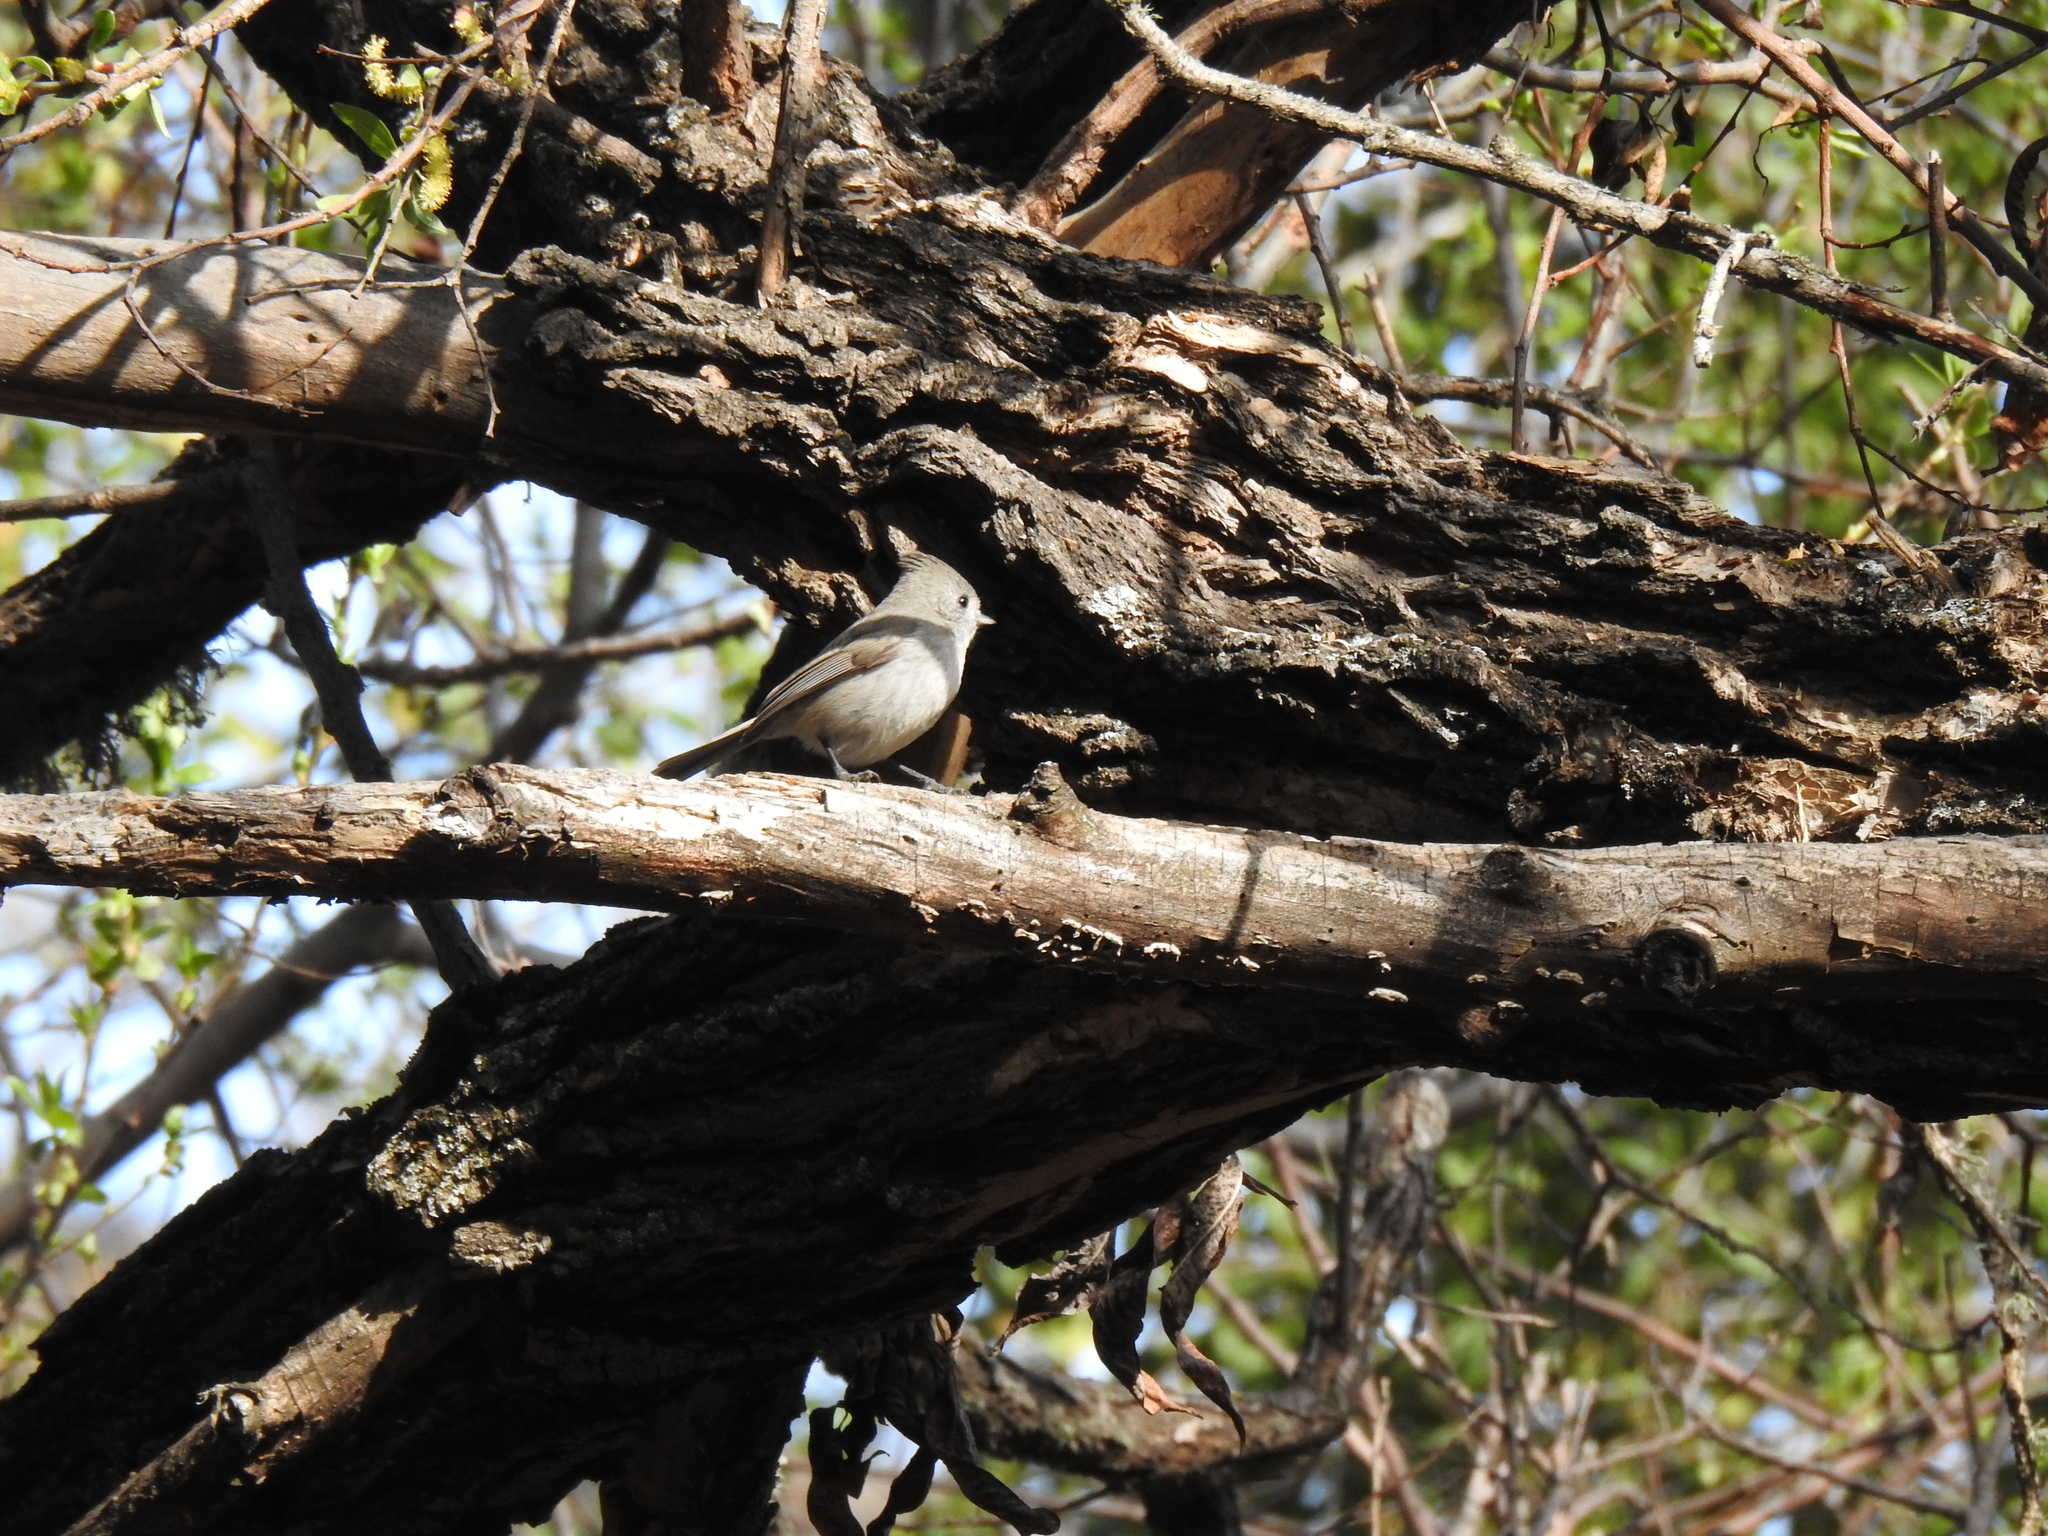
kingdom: Animalia
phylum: Chordata
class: Aves
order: Passeriformes
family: Paridae
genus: Baeolophus
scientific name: Baeolophus inornatus
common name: Oak titmouse
